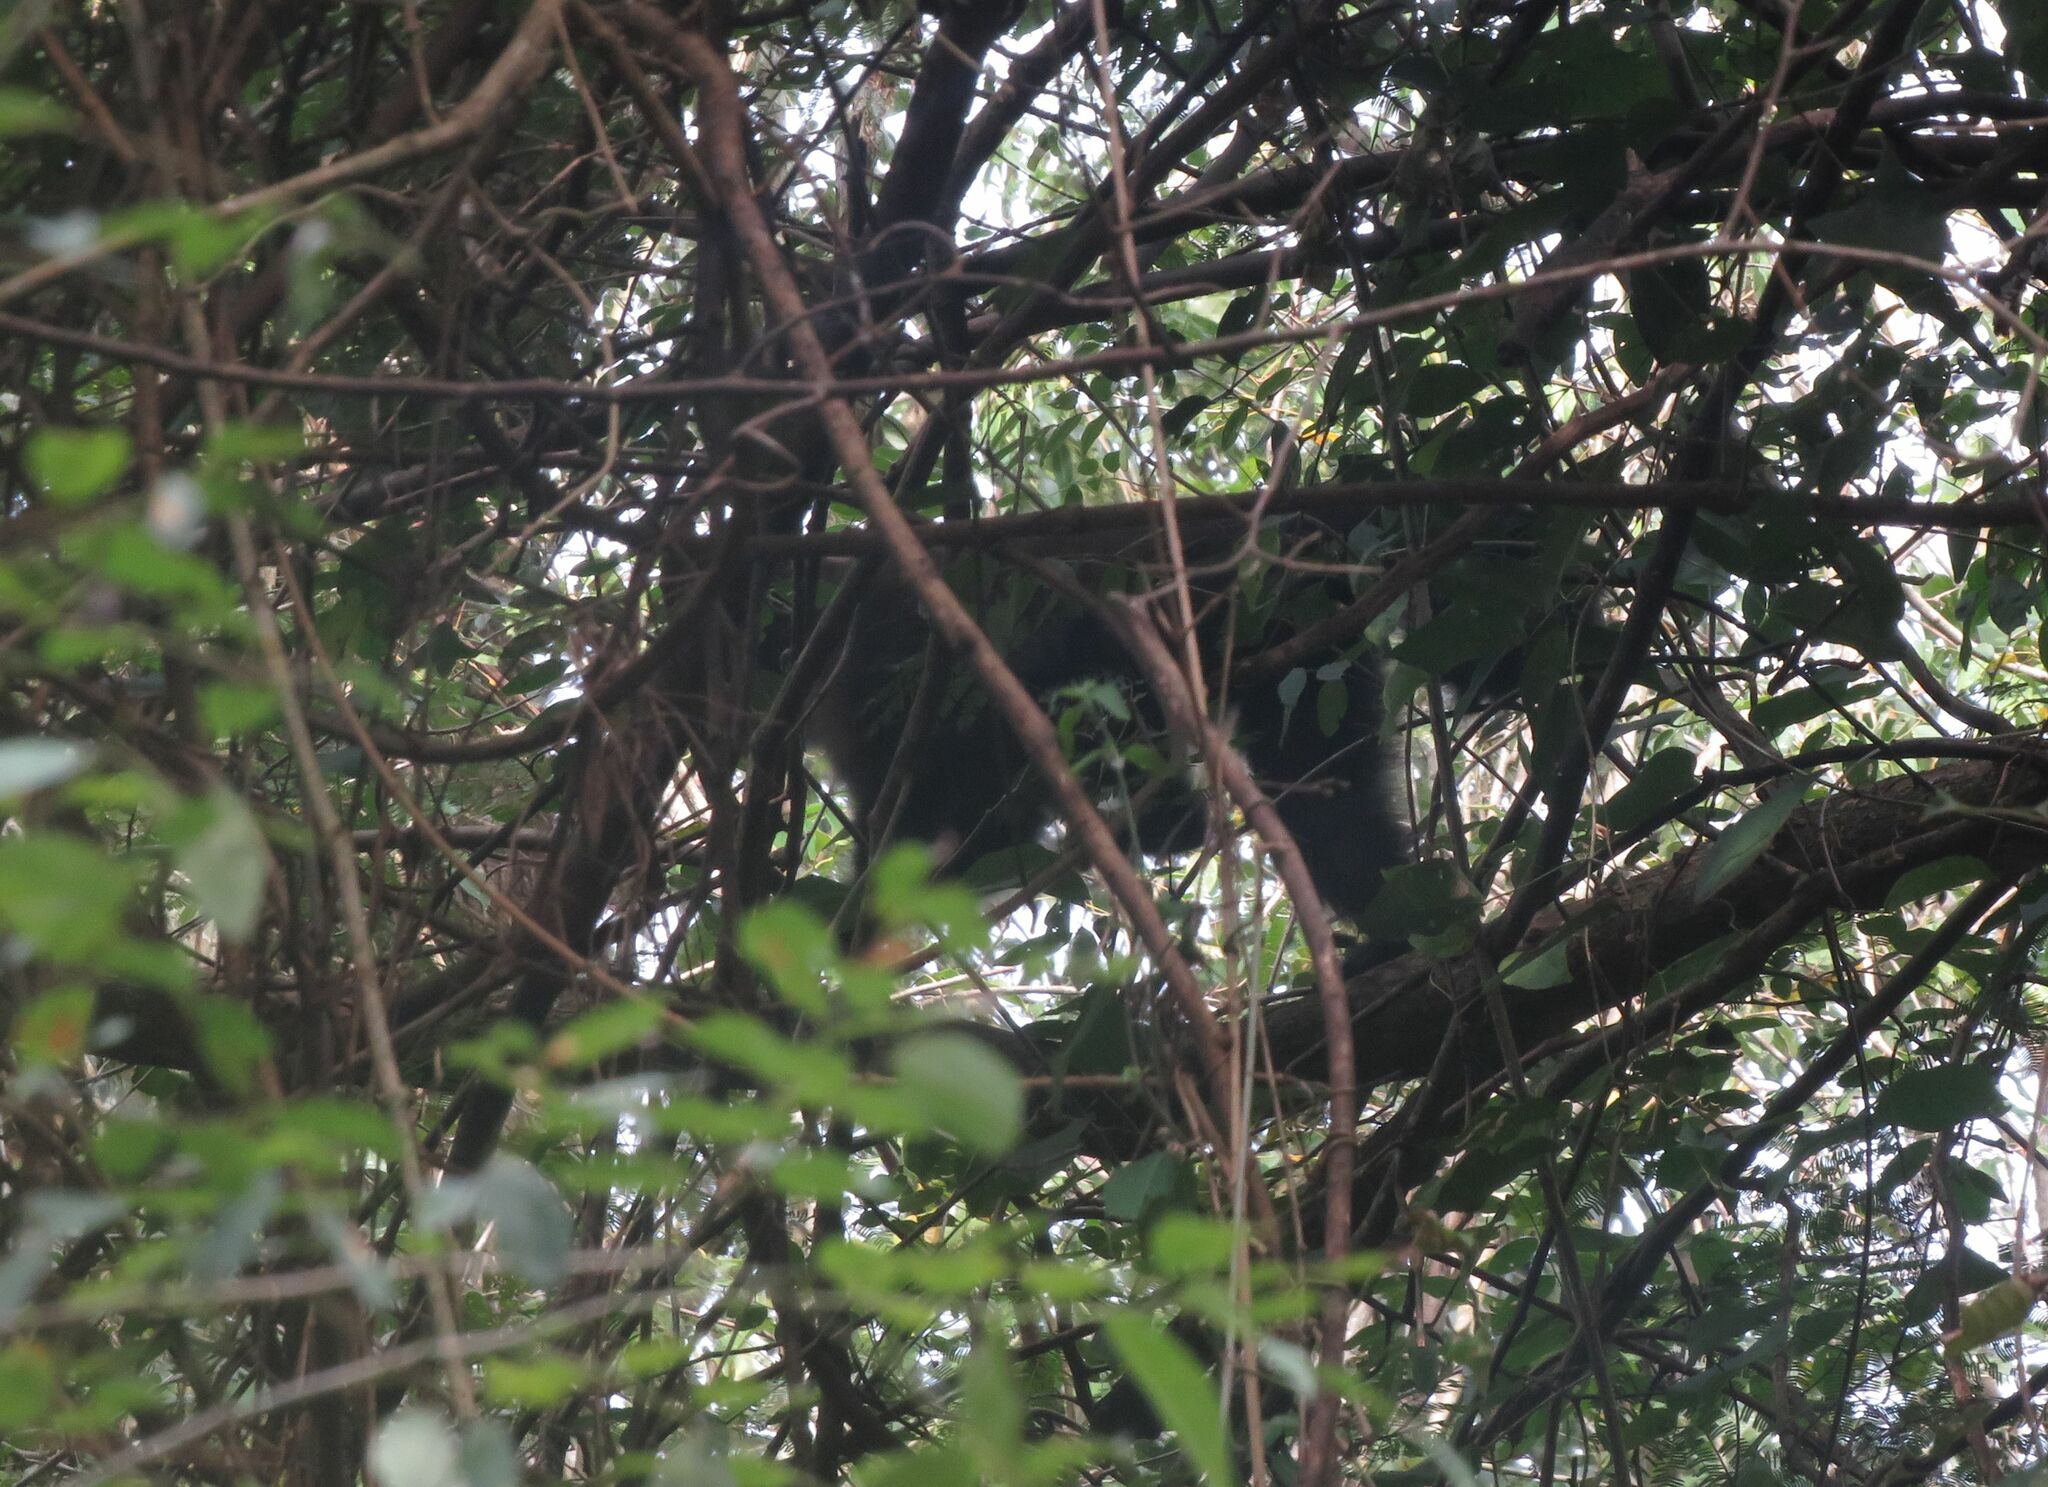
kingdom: Animalia
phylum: Chordata
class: Mammalia
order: Primates
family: Cebidae
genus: Sapajus
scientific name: Sapajus nigritus
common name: Black capuchin
